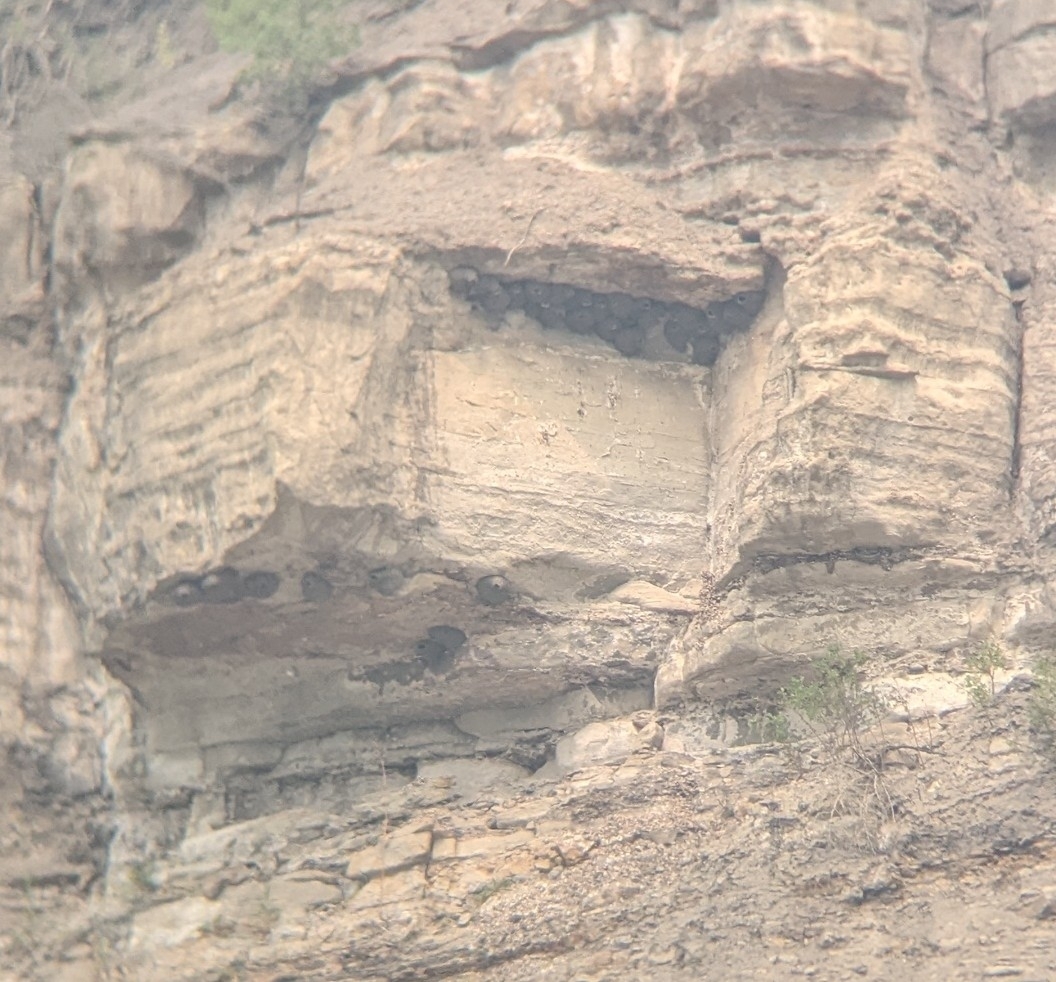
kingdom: Animalia
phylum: Chordata
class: Aves
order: Passeriformes
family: Hirundinidae
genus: Petrochelidon
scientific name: Petrochelidon pyrrhonota
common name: American cliff swallow
